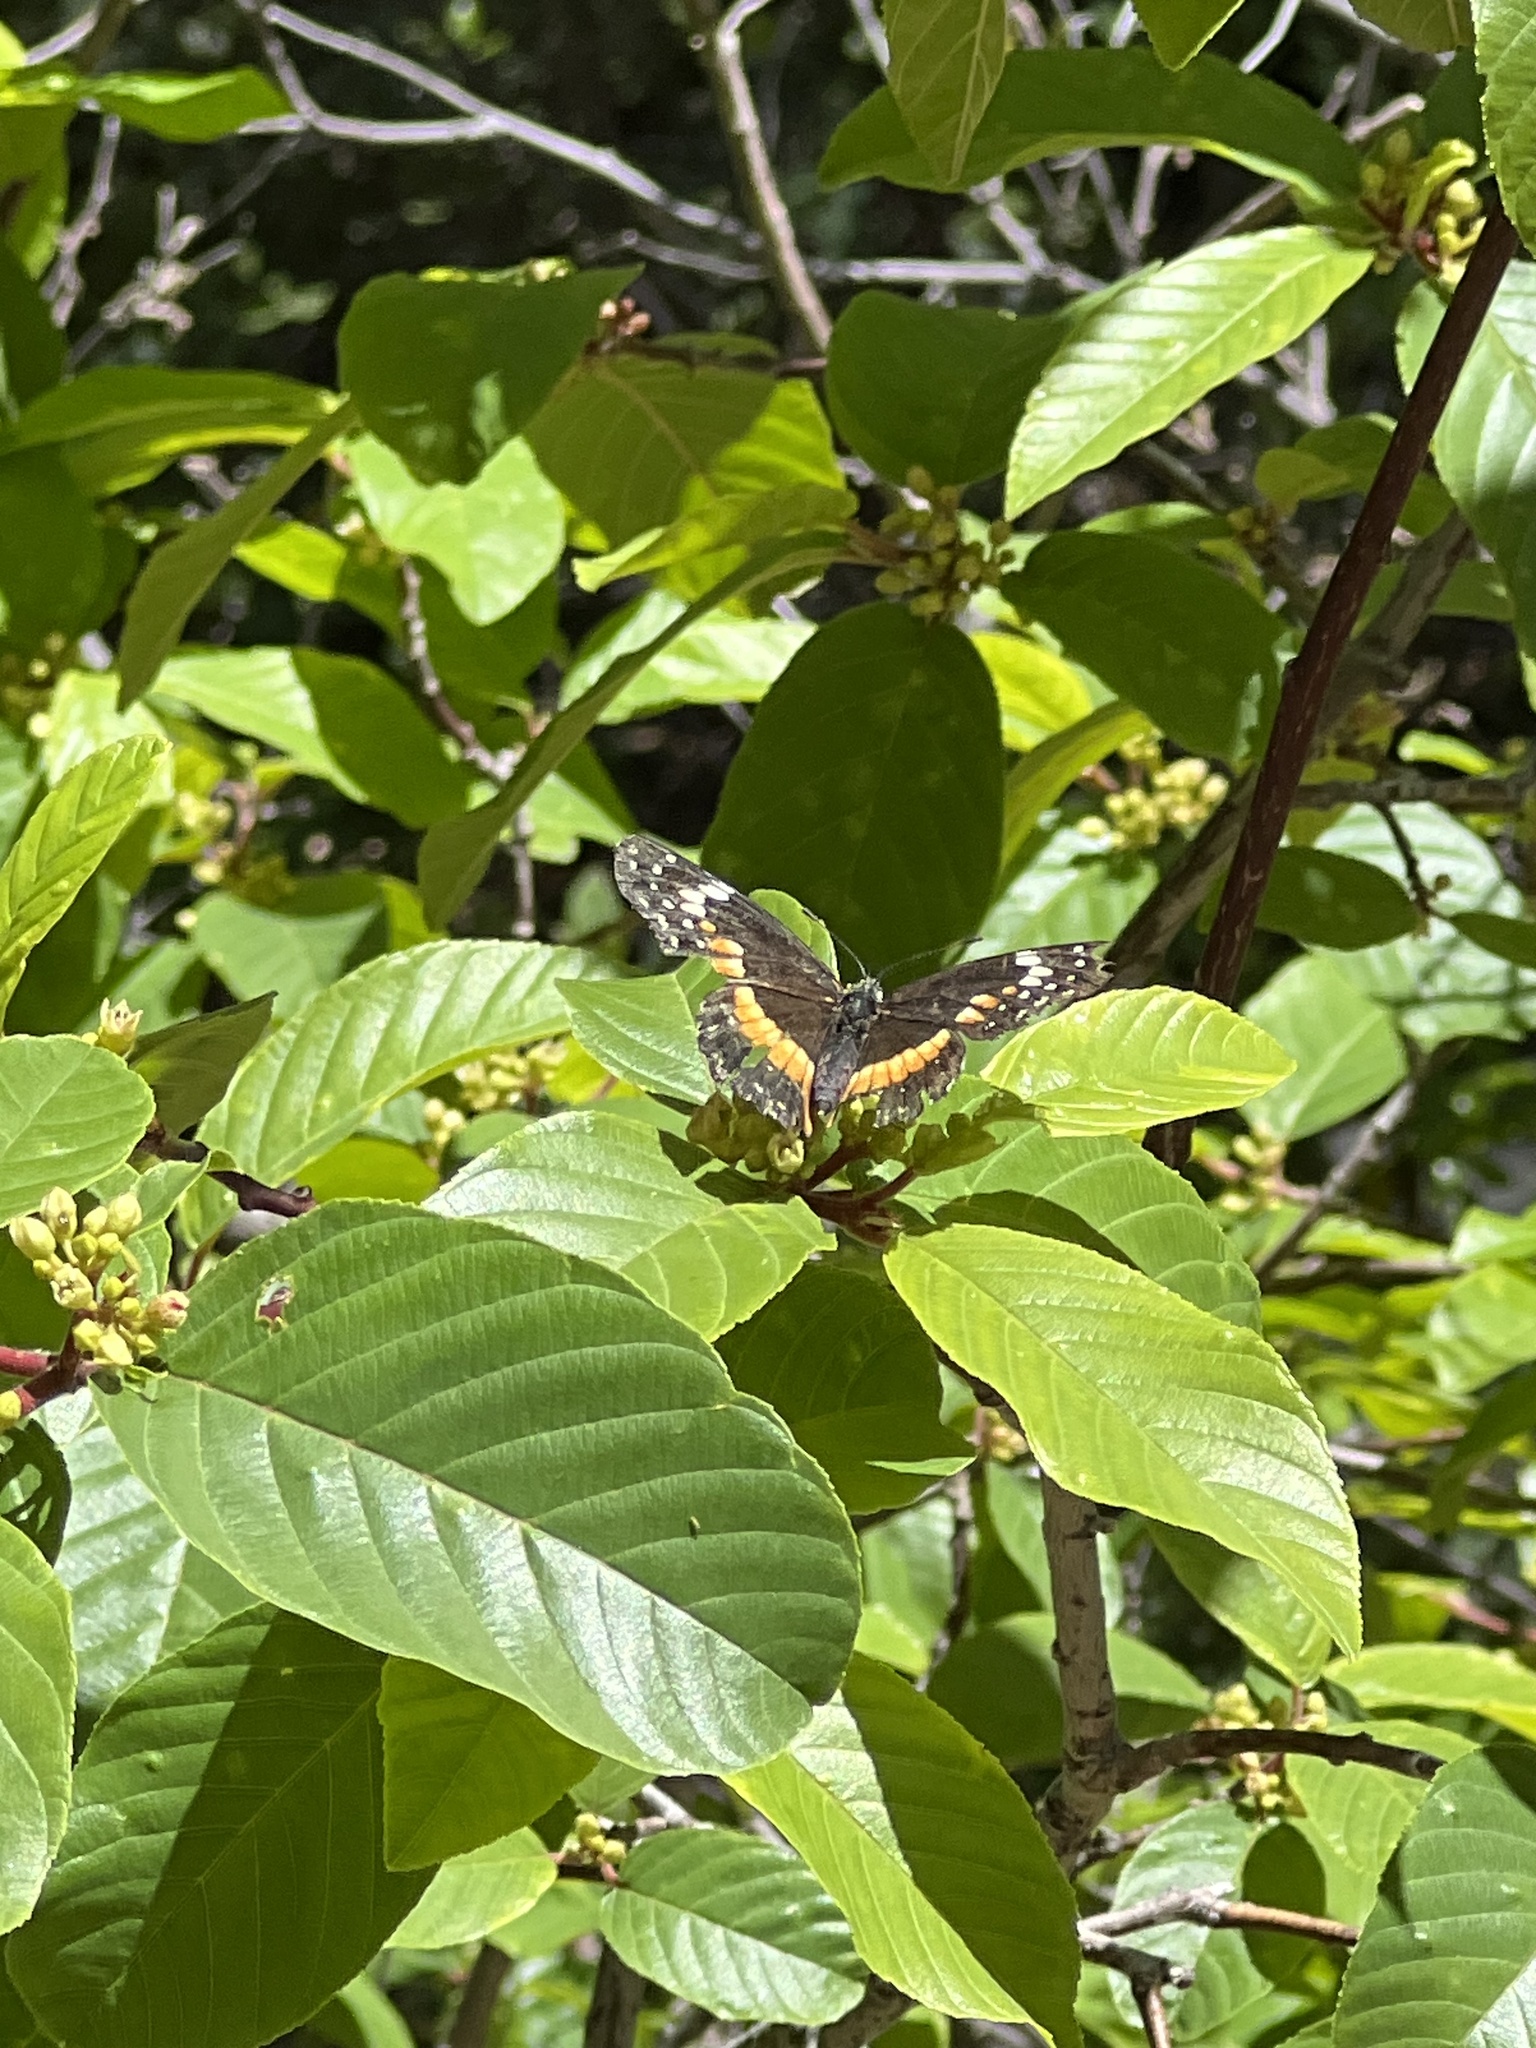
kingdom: Animalia
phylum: Arthropoda
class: Insecta
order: Lepidoptera
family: Nymphalidae
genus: Chlosyne
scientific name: Chlosyne lacinia
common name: Bordered patch
